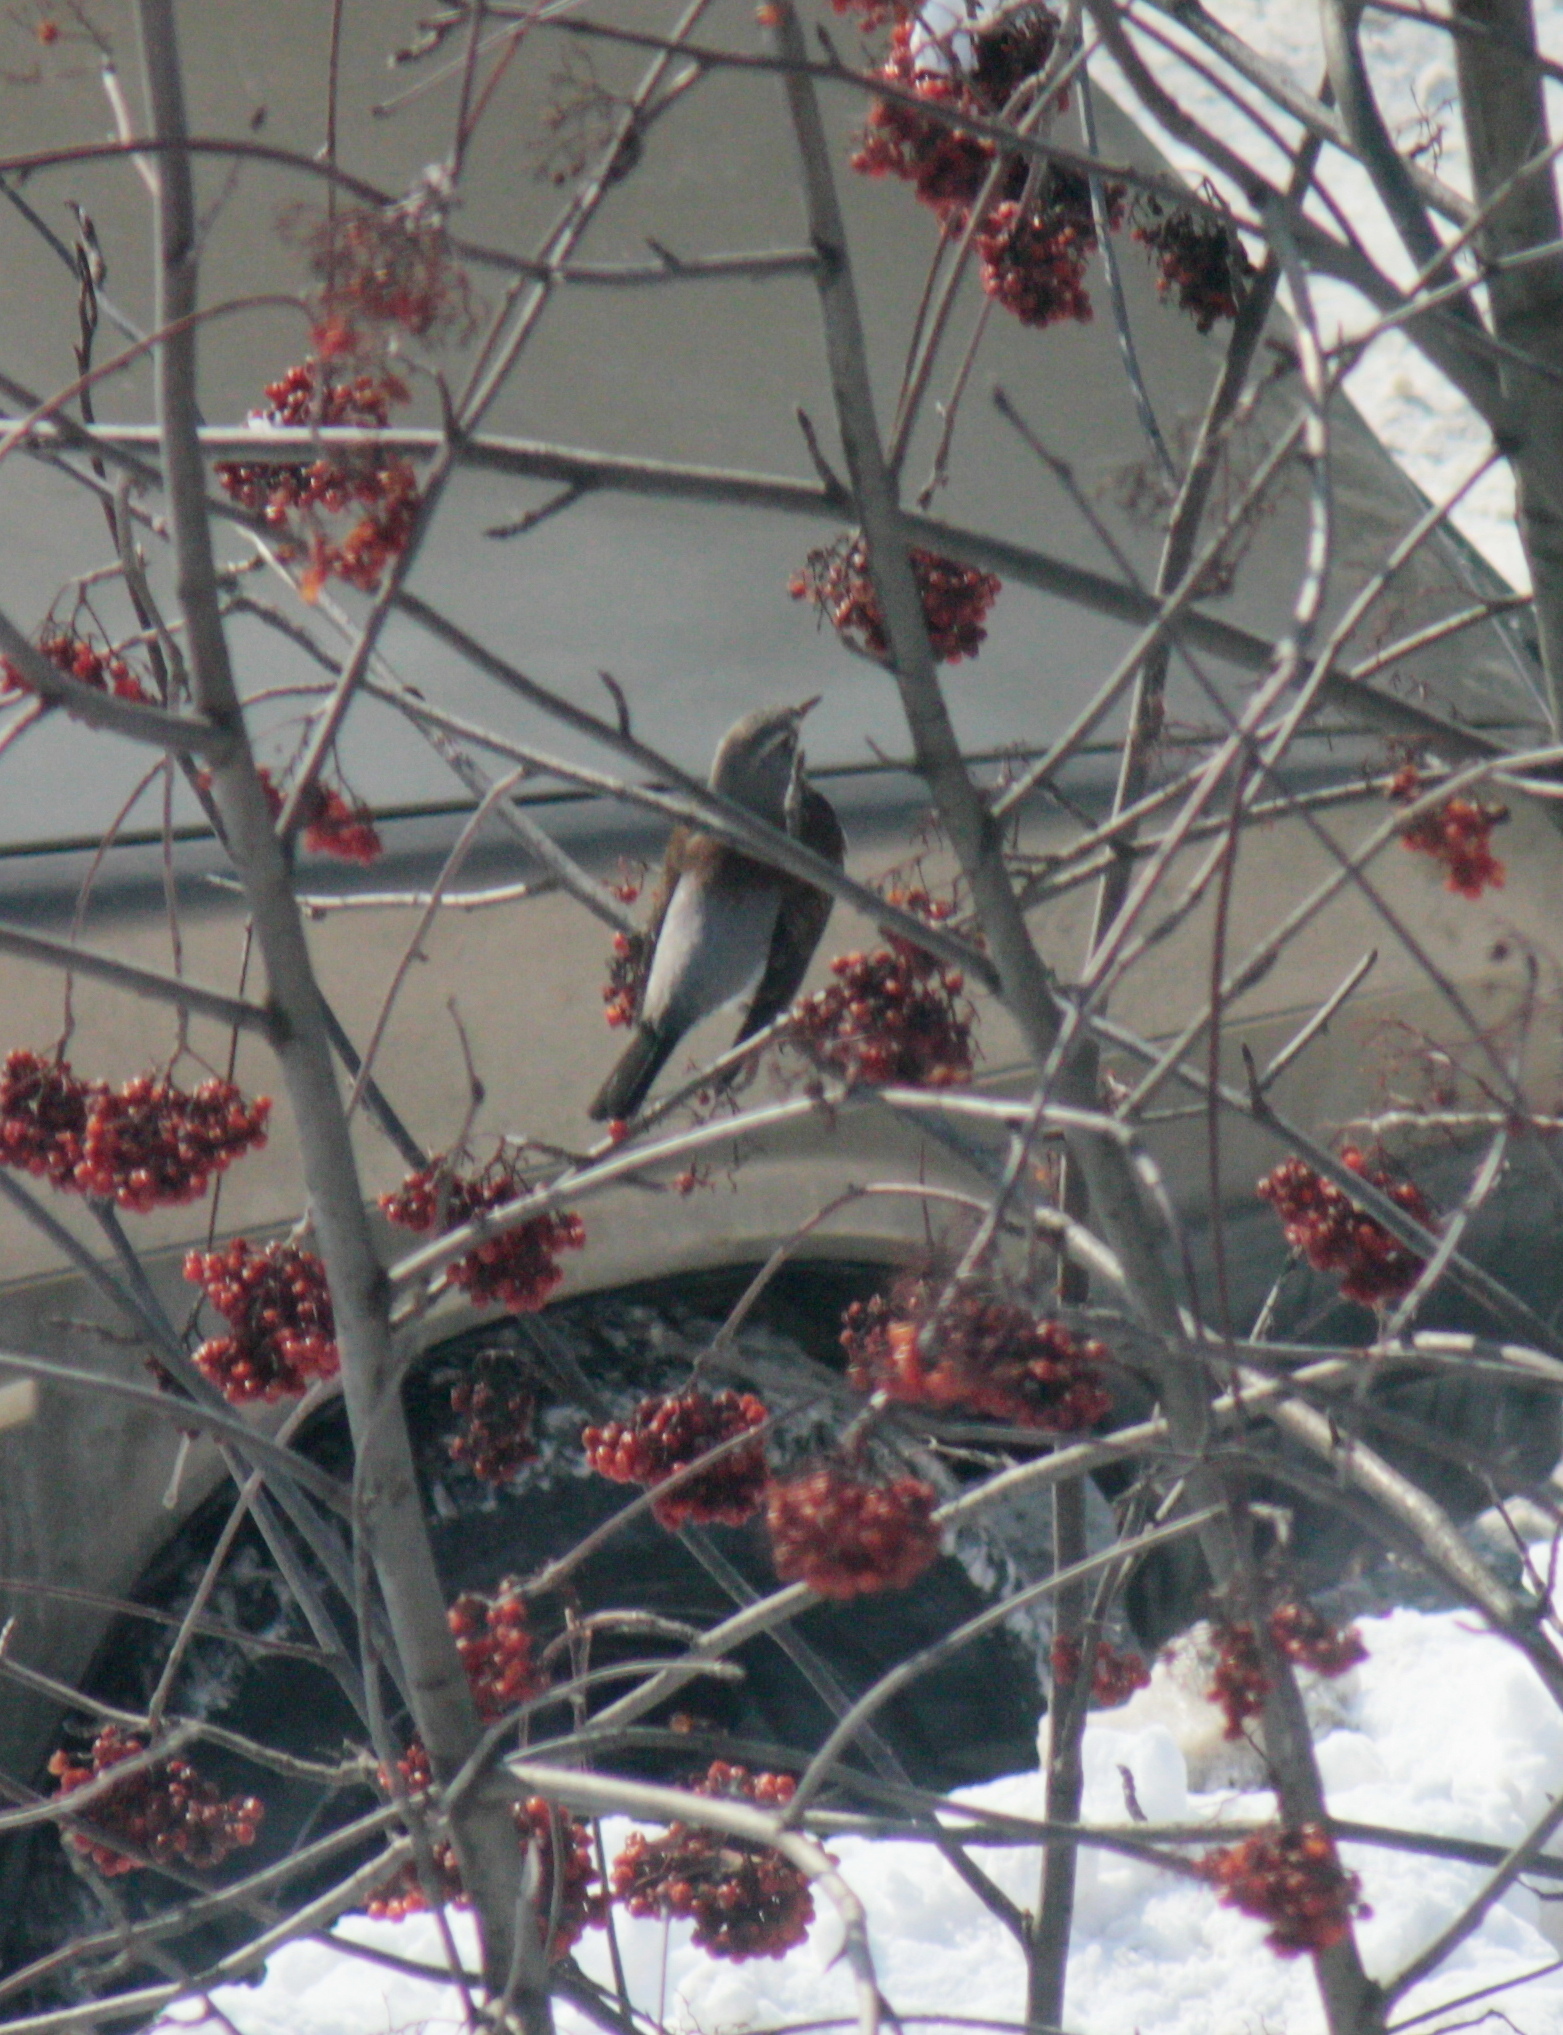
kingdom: Animalia
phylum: Chordata
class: Aves
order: Passeriformes
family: Turdidae
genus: Turdus
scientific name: Turdus pilaris
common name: Fieldfare
